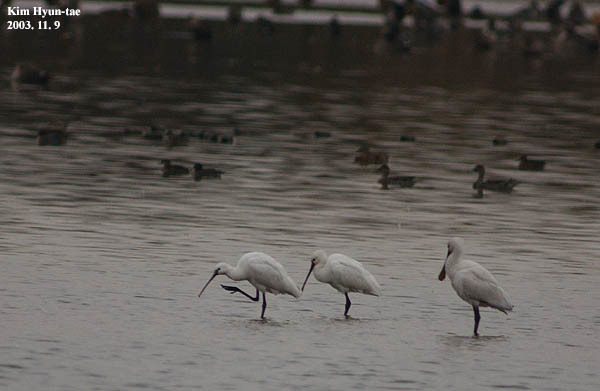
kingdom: Animalia
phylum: Chordata
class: Aves
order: Pelecaniformes
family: Threskiornithidae
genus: Platalea
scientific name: Platalea leucorodia
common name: Eurasian spoonbill
